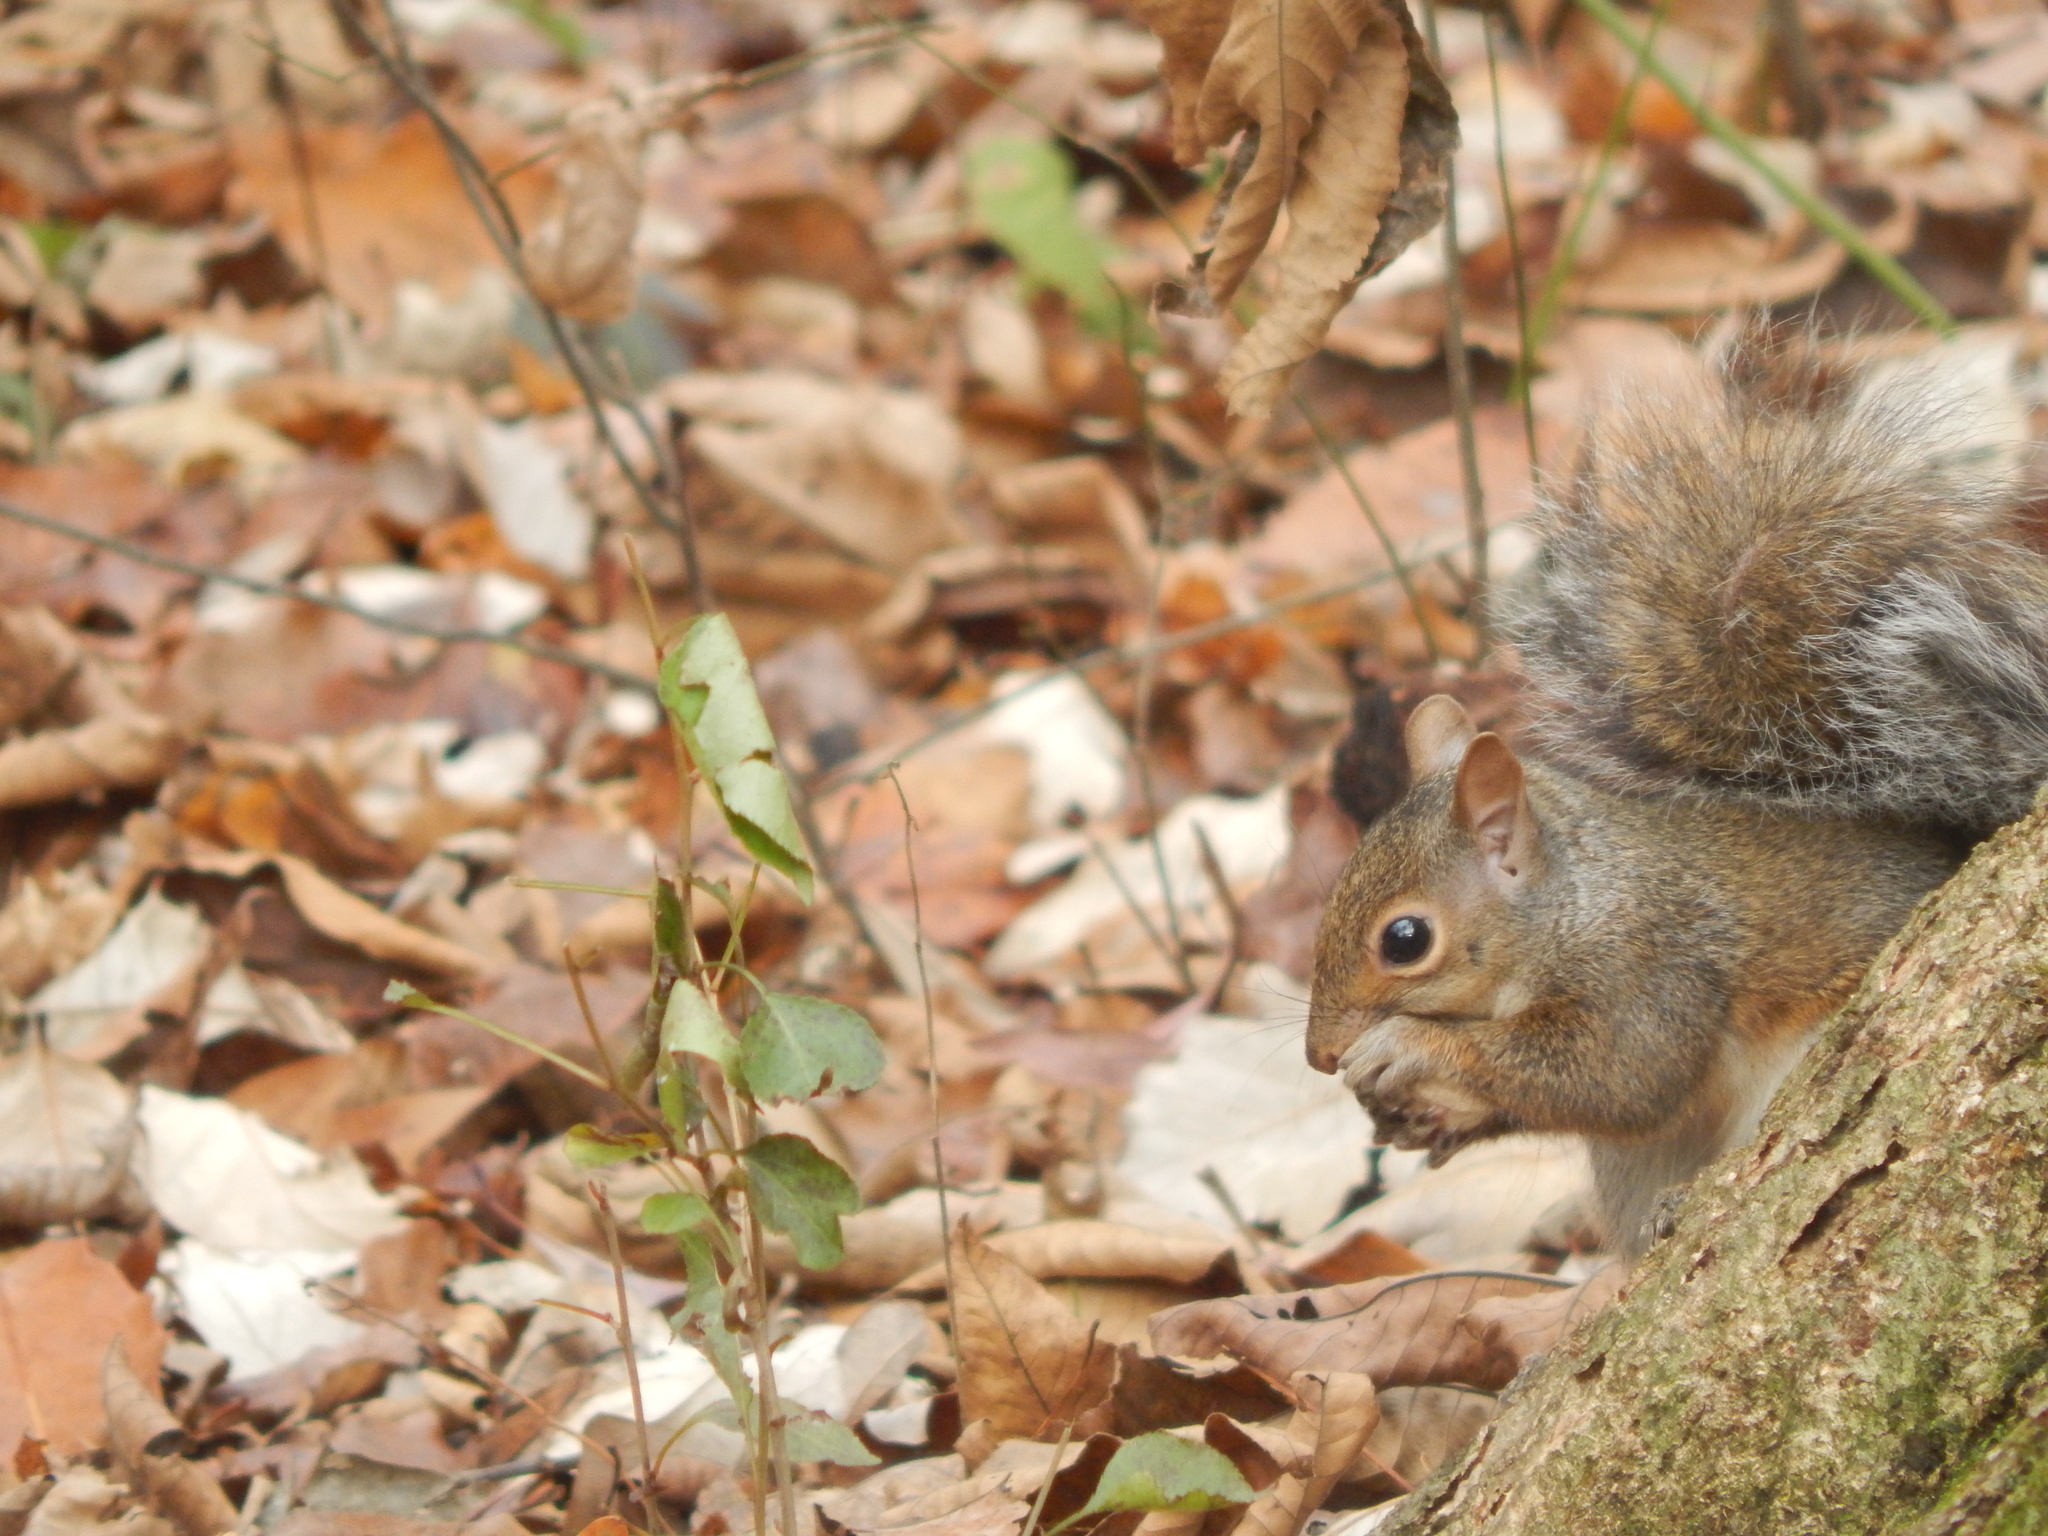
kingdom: Animalia
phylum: Chordata
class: Mammalia
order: Rodentia
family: Sciuridae
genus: Sciurus
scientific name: Sciurus carolinensis
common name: Eastern gray squirrel
